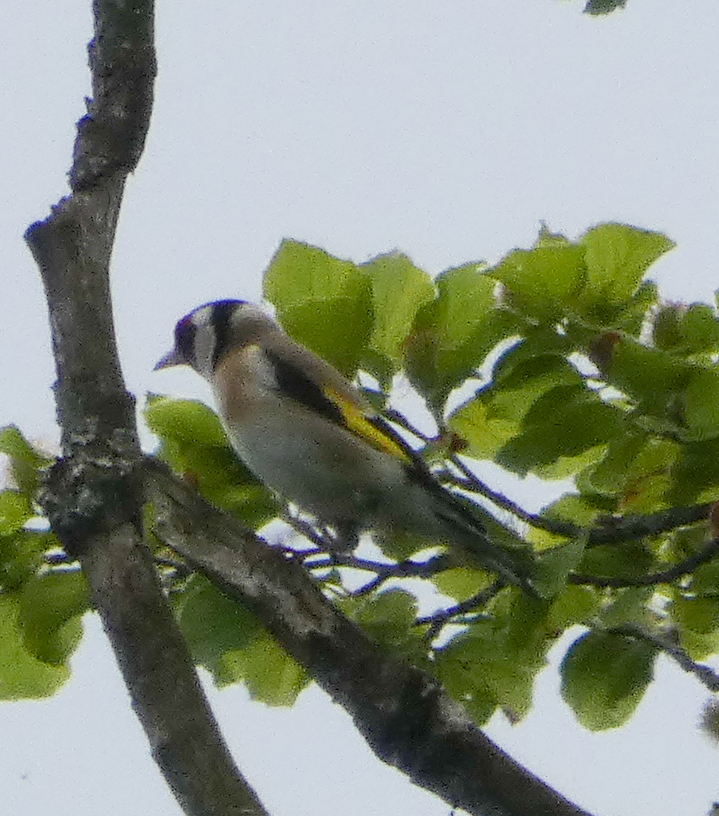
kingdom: Animalia
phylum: Chordata
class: Aves
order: Passeriformes
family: Fringillidae
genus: Carduelis
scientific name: Carduelis carduelis
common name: European goldfinch
